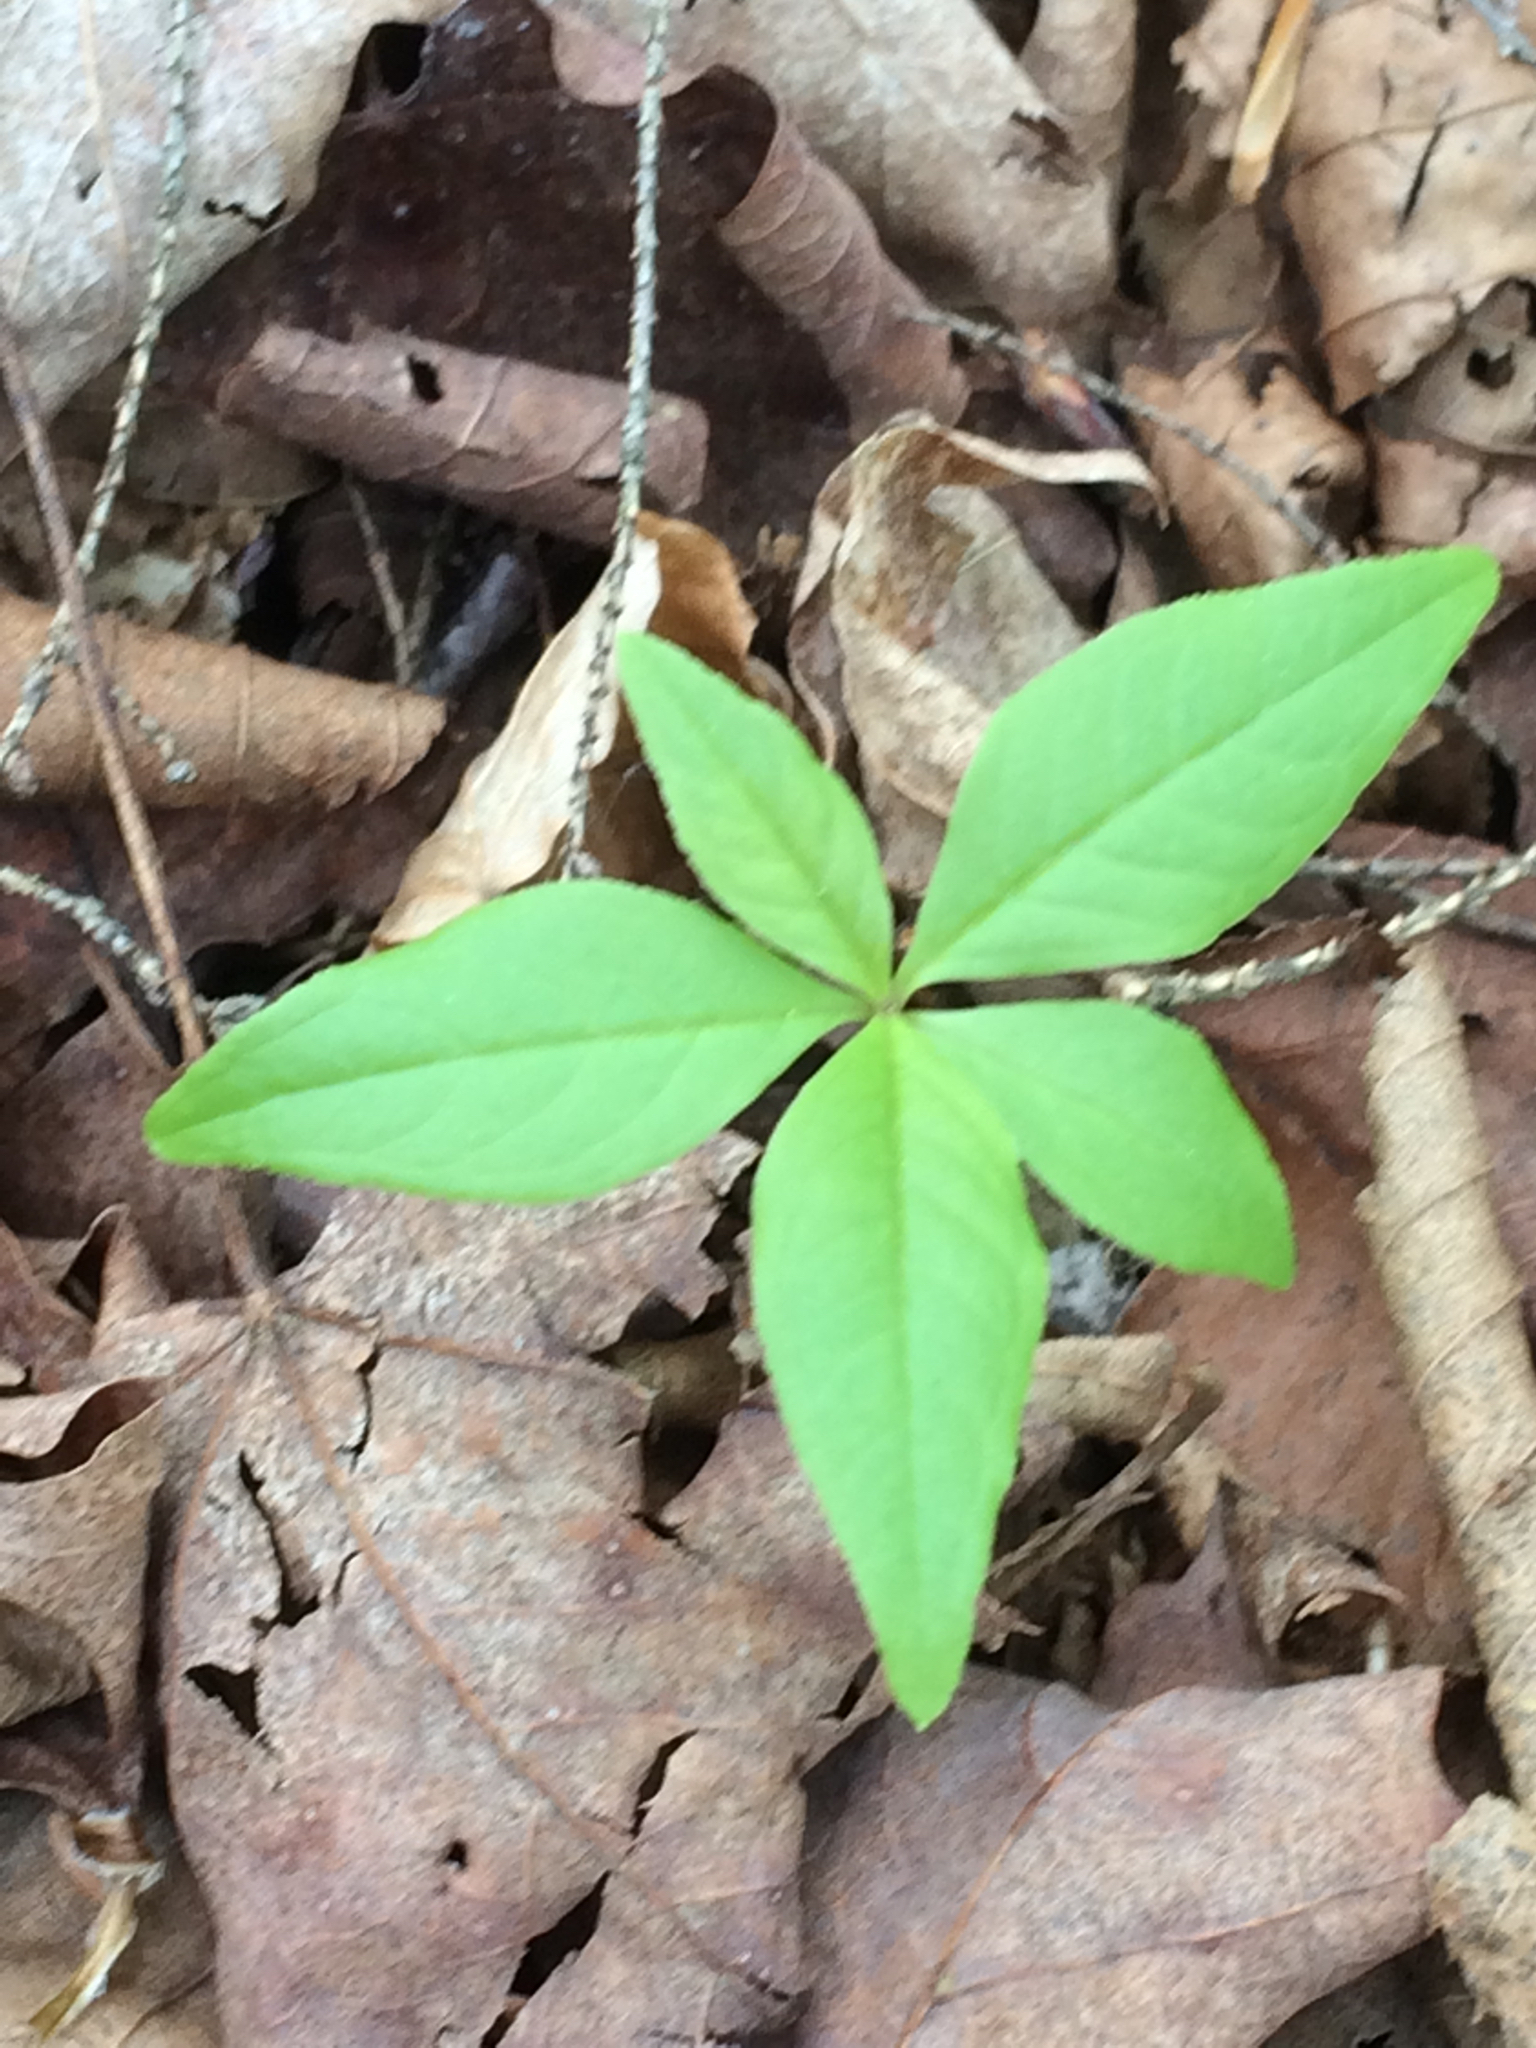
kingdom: Plantae
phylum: Tracheophyta
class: Magnoliopsida
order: Ericales
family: Primulaceae
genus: Lysimachia
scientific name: Lysimachia borealis
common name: American starflower
